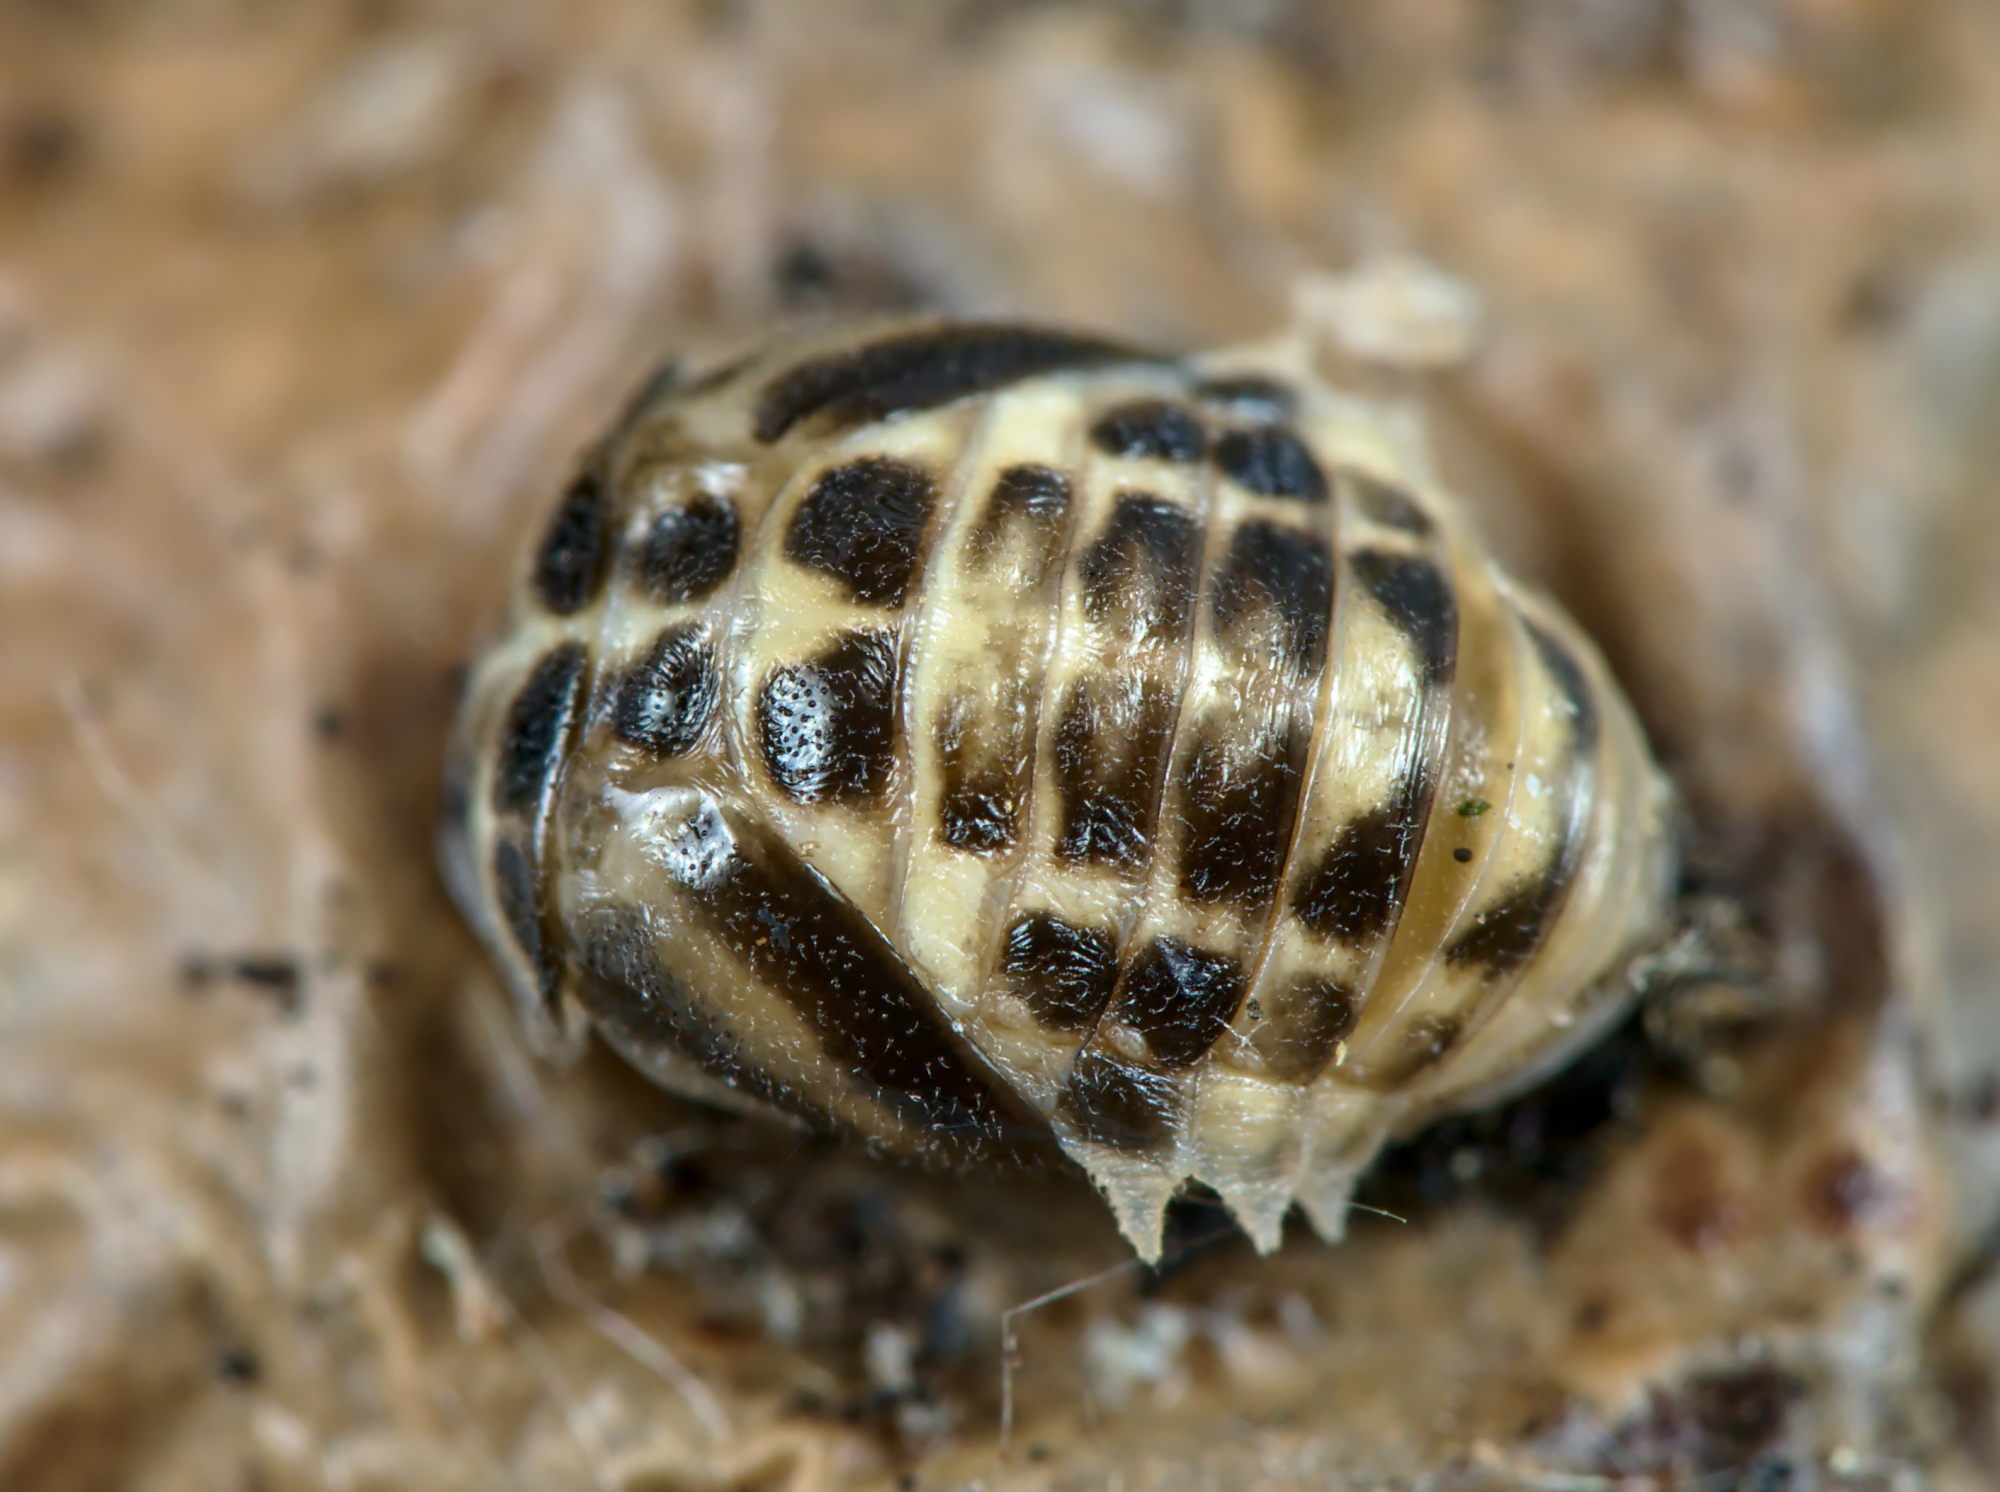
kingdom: Animalia
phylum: Arthropoda
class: Insecta
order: Coleoptera
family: Coccinellidae
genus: Calvia
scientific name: Calvia quatuordecimguttata
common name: Cream-spot ladybird
